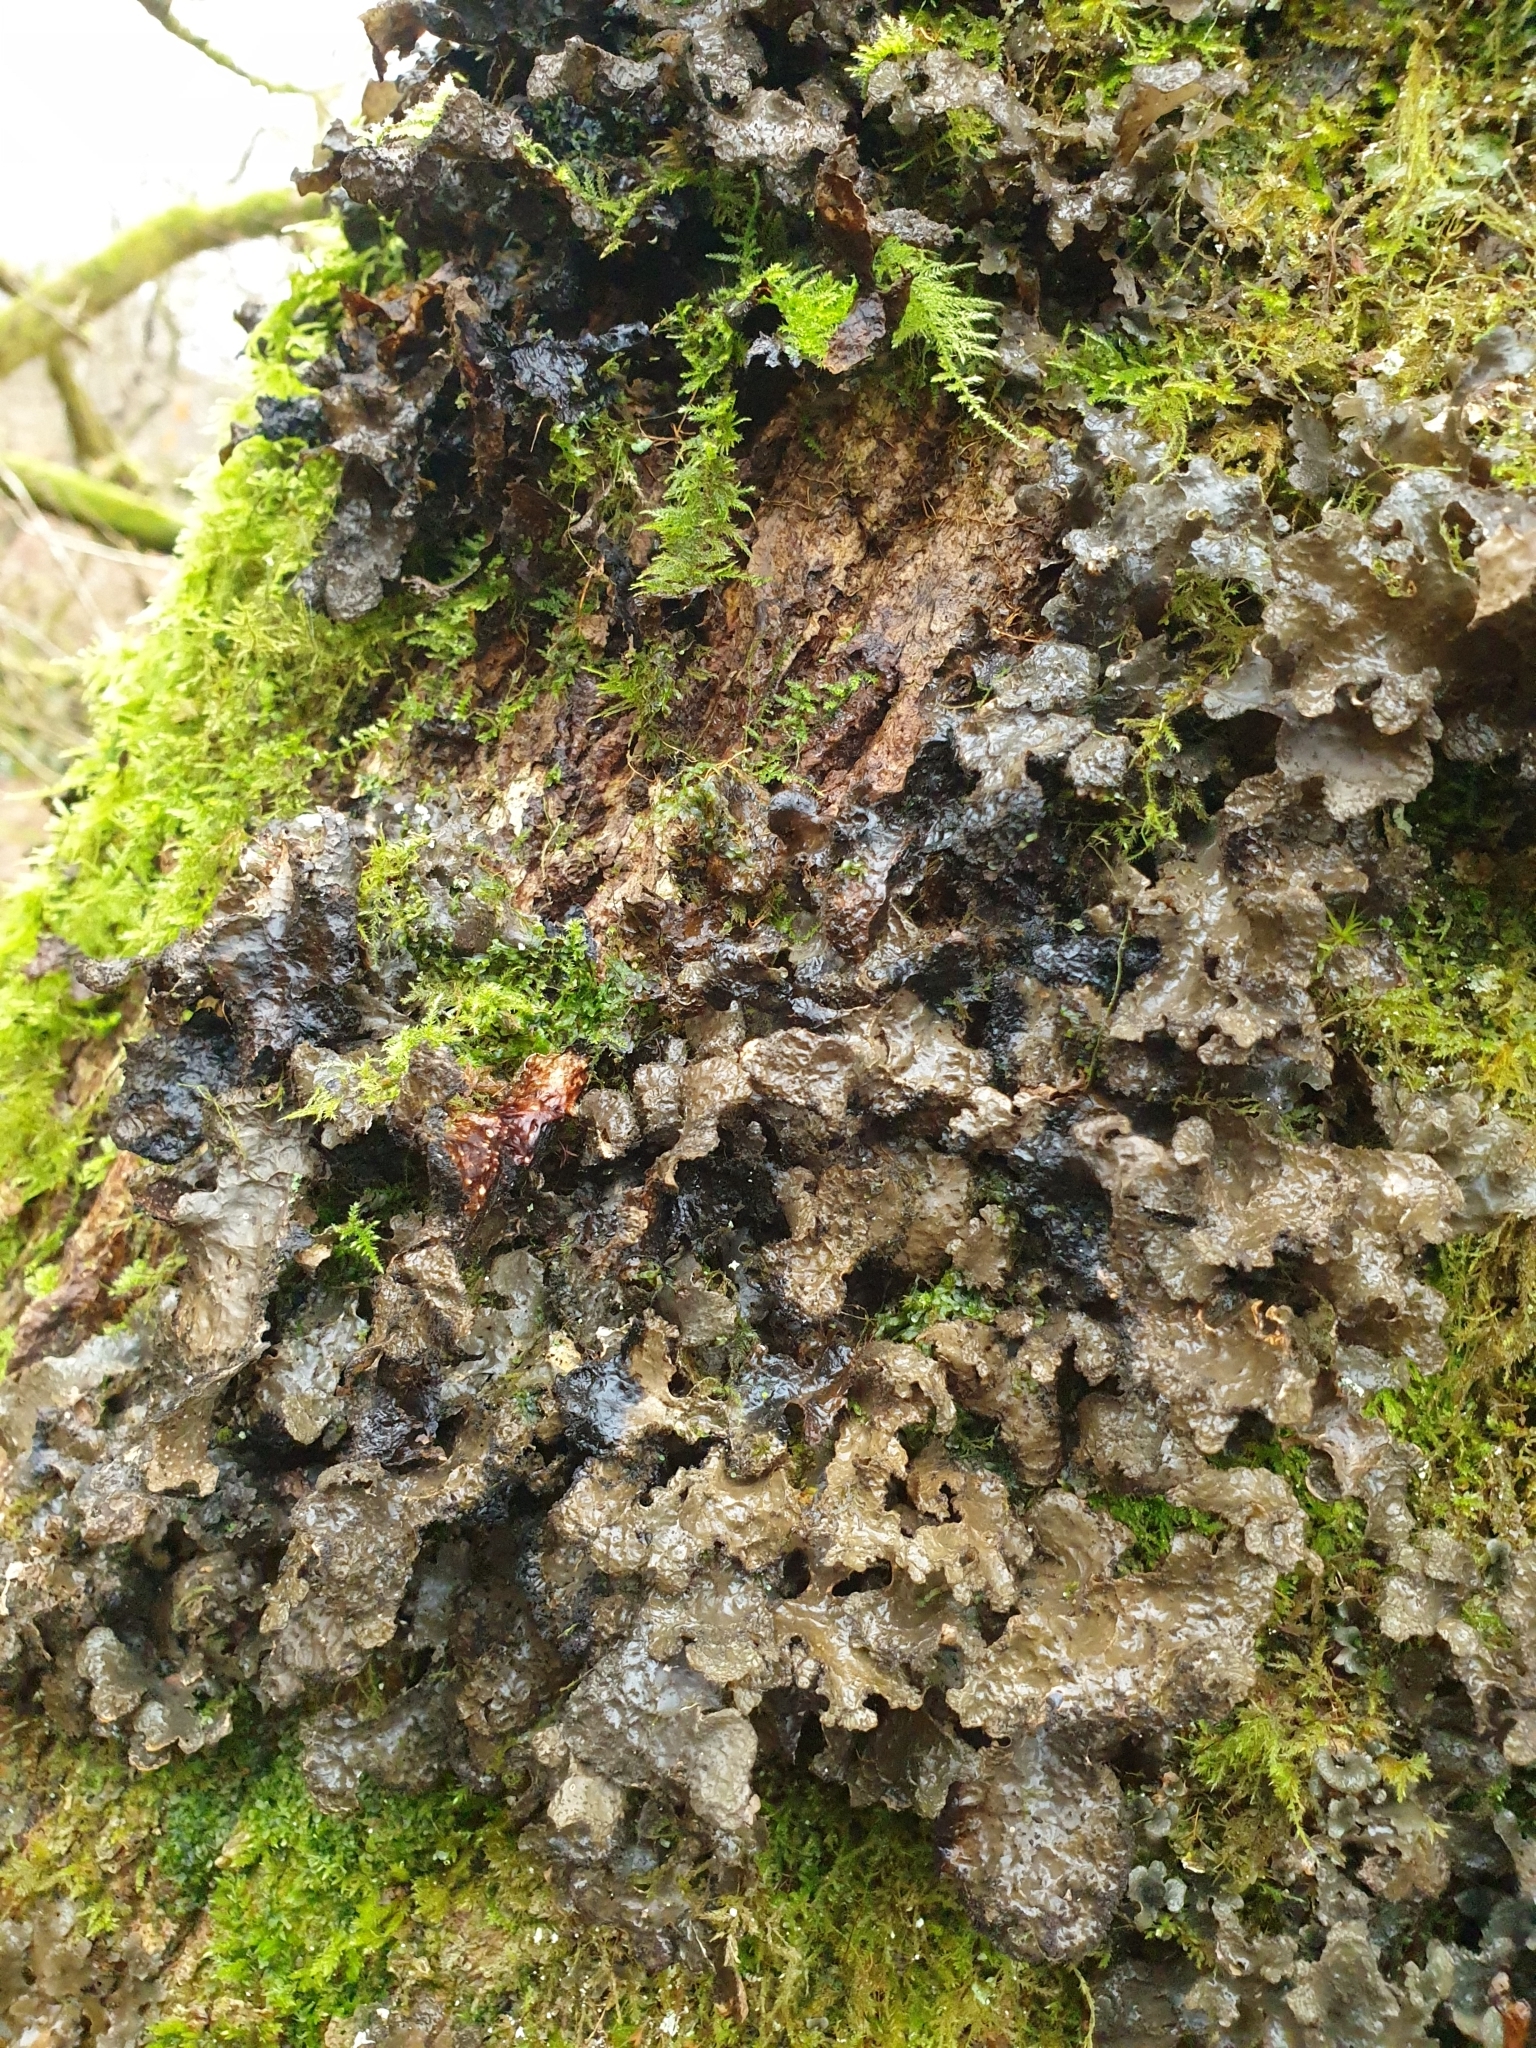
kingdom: Fungi
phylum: Ascomycota
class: Lecanoromycetes
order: Peltigerales
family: Lobariaceae
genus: Sticta
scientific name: Sticta sylvatica
